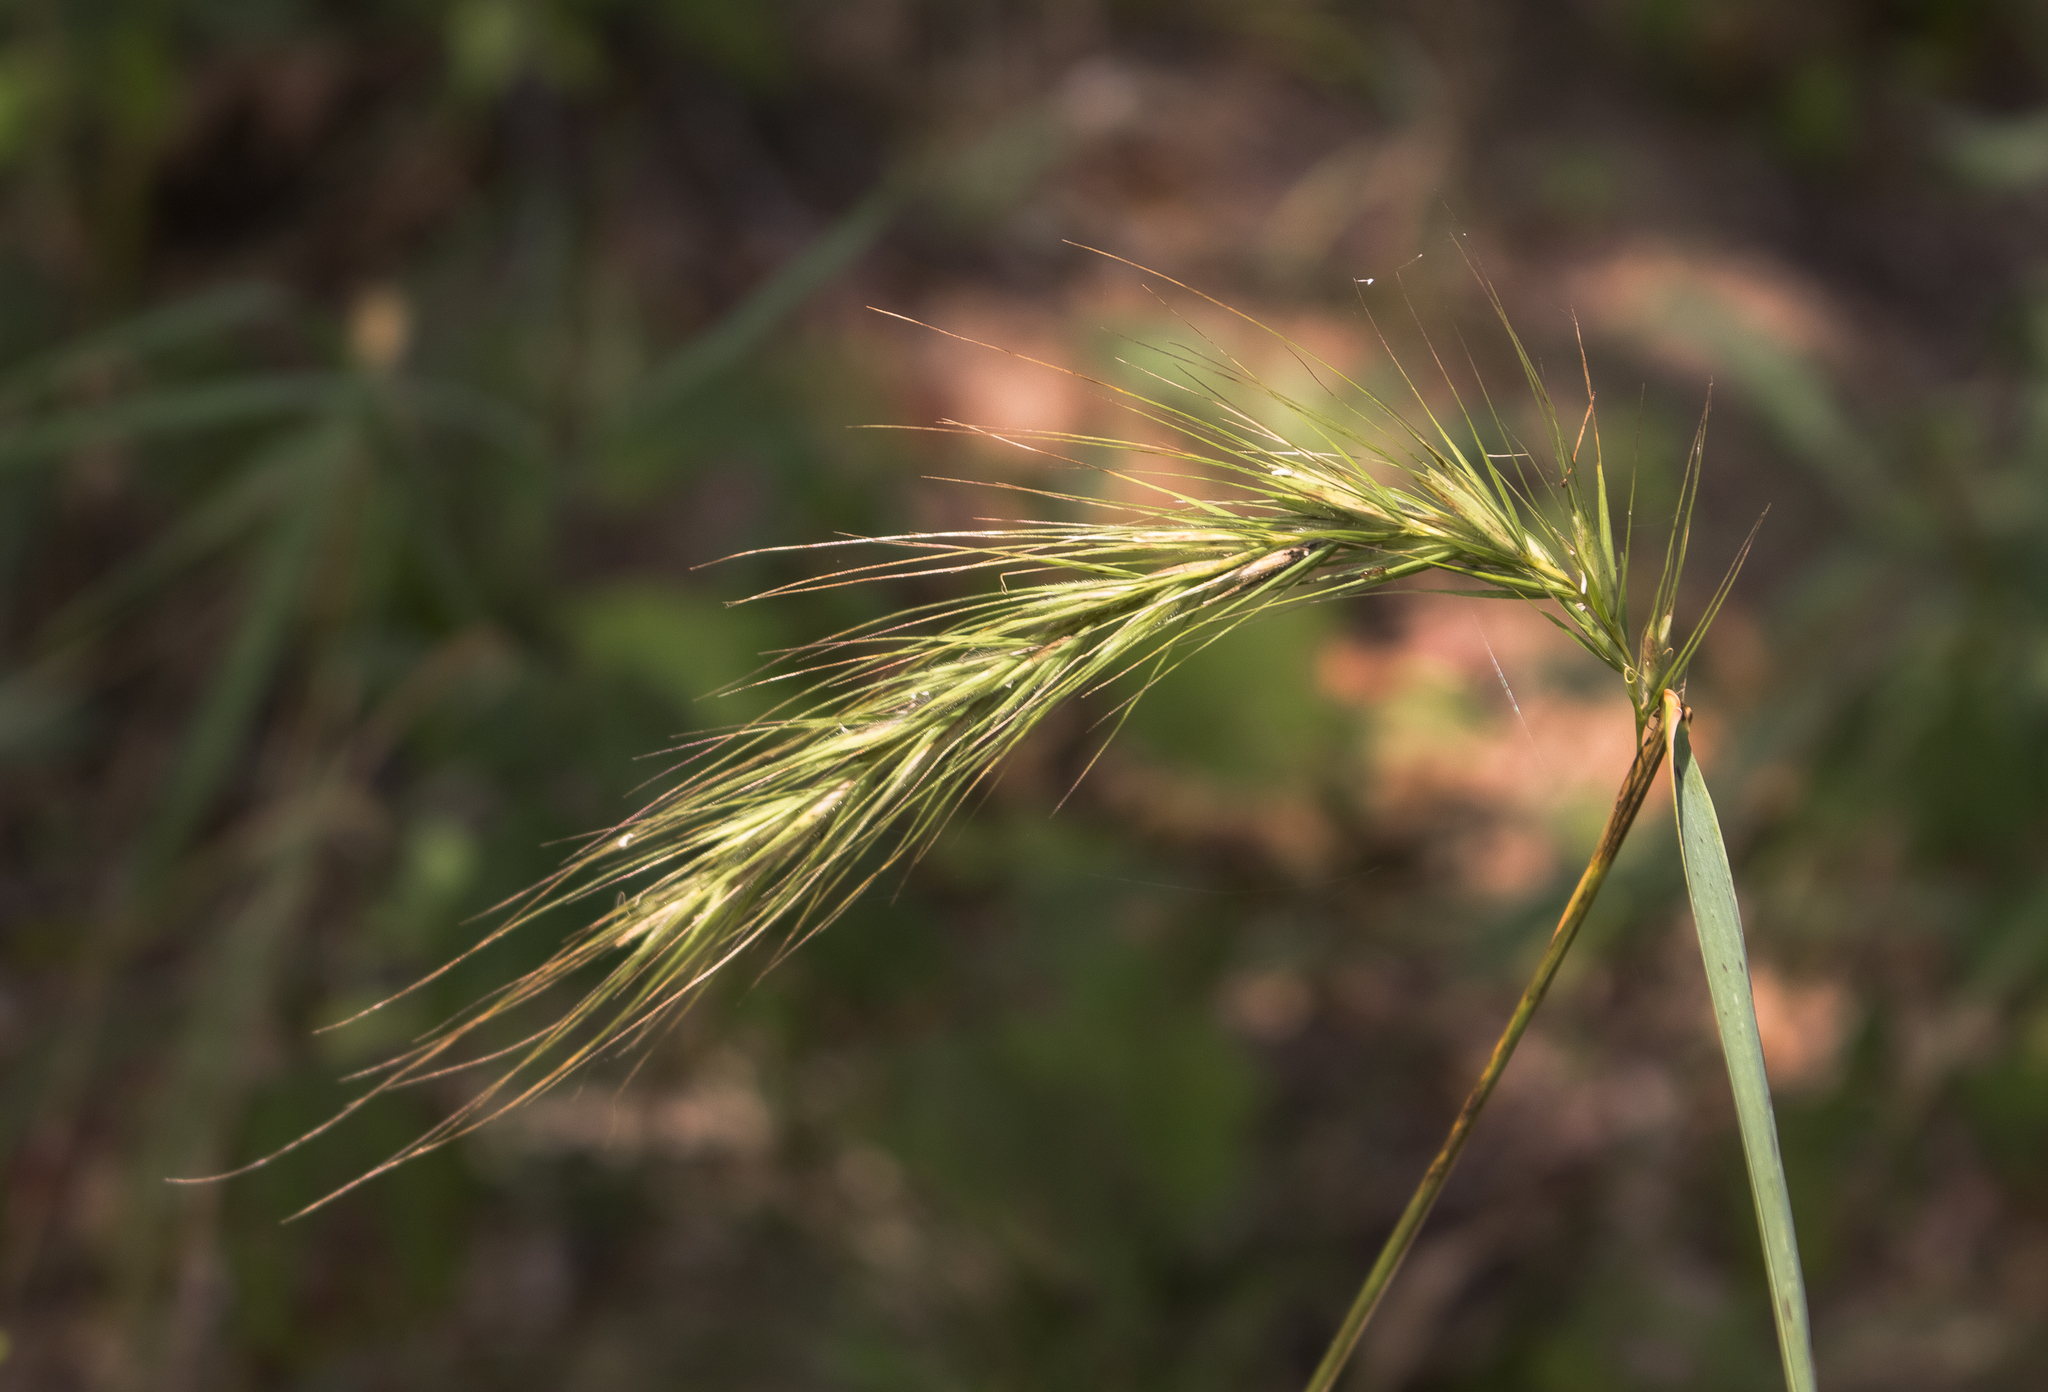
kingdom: Plantae
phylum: Tracheophyta
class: Liliopsida
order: Poales
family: Poaceae
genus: Elymus
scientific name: Elymus riparius
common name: Eastern riverbank wild rye
